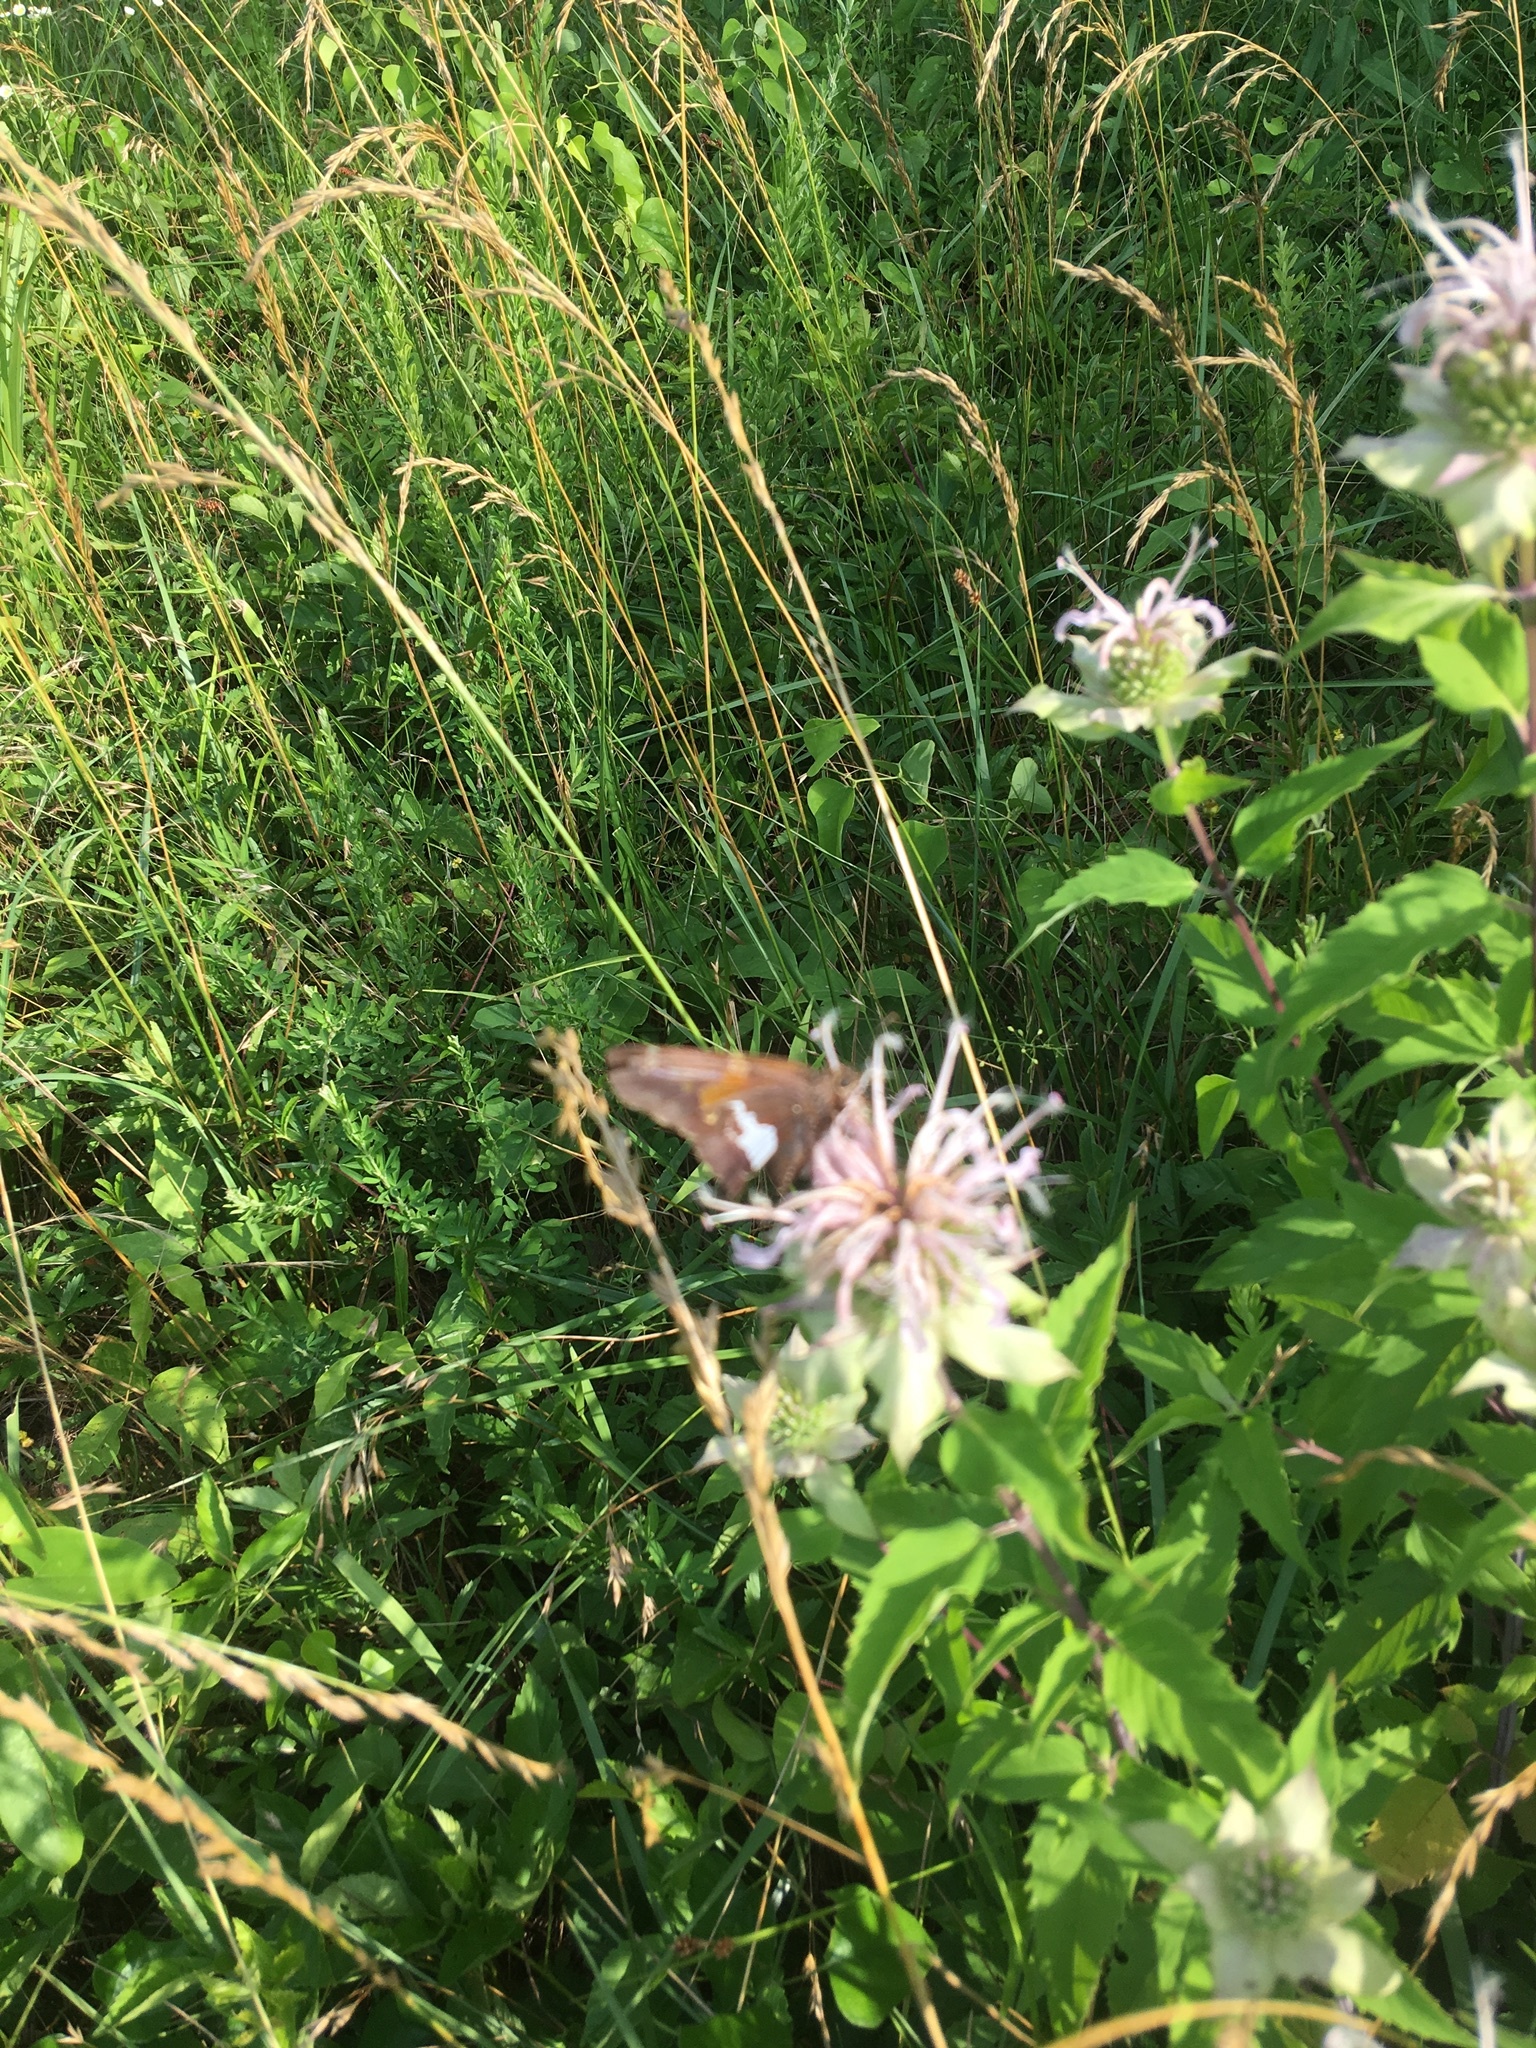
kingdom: Animalia
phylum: Arthropoda
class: Insecta
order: Lepidoptera
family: Hesperiidae
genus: Epargyreus
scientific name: Epargyreus clarus
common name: Silver-spotted skipper
